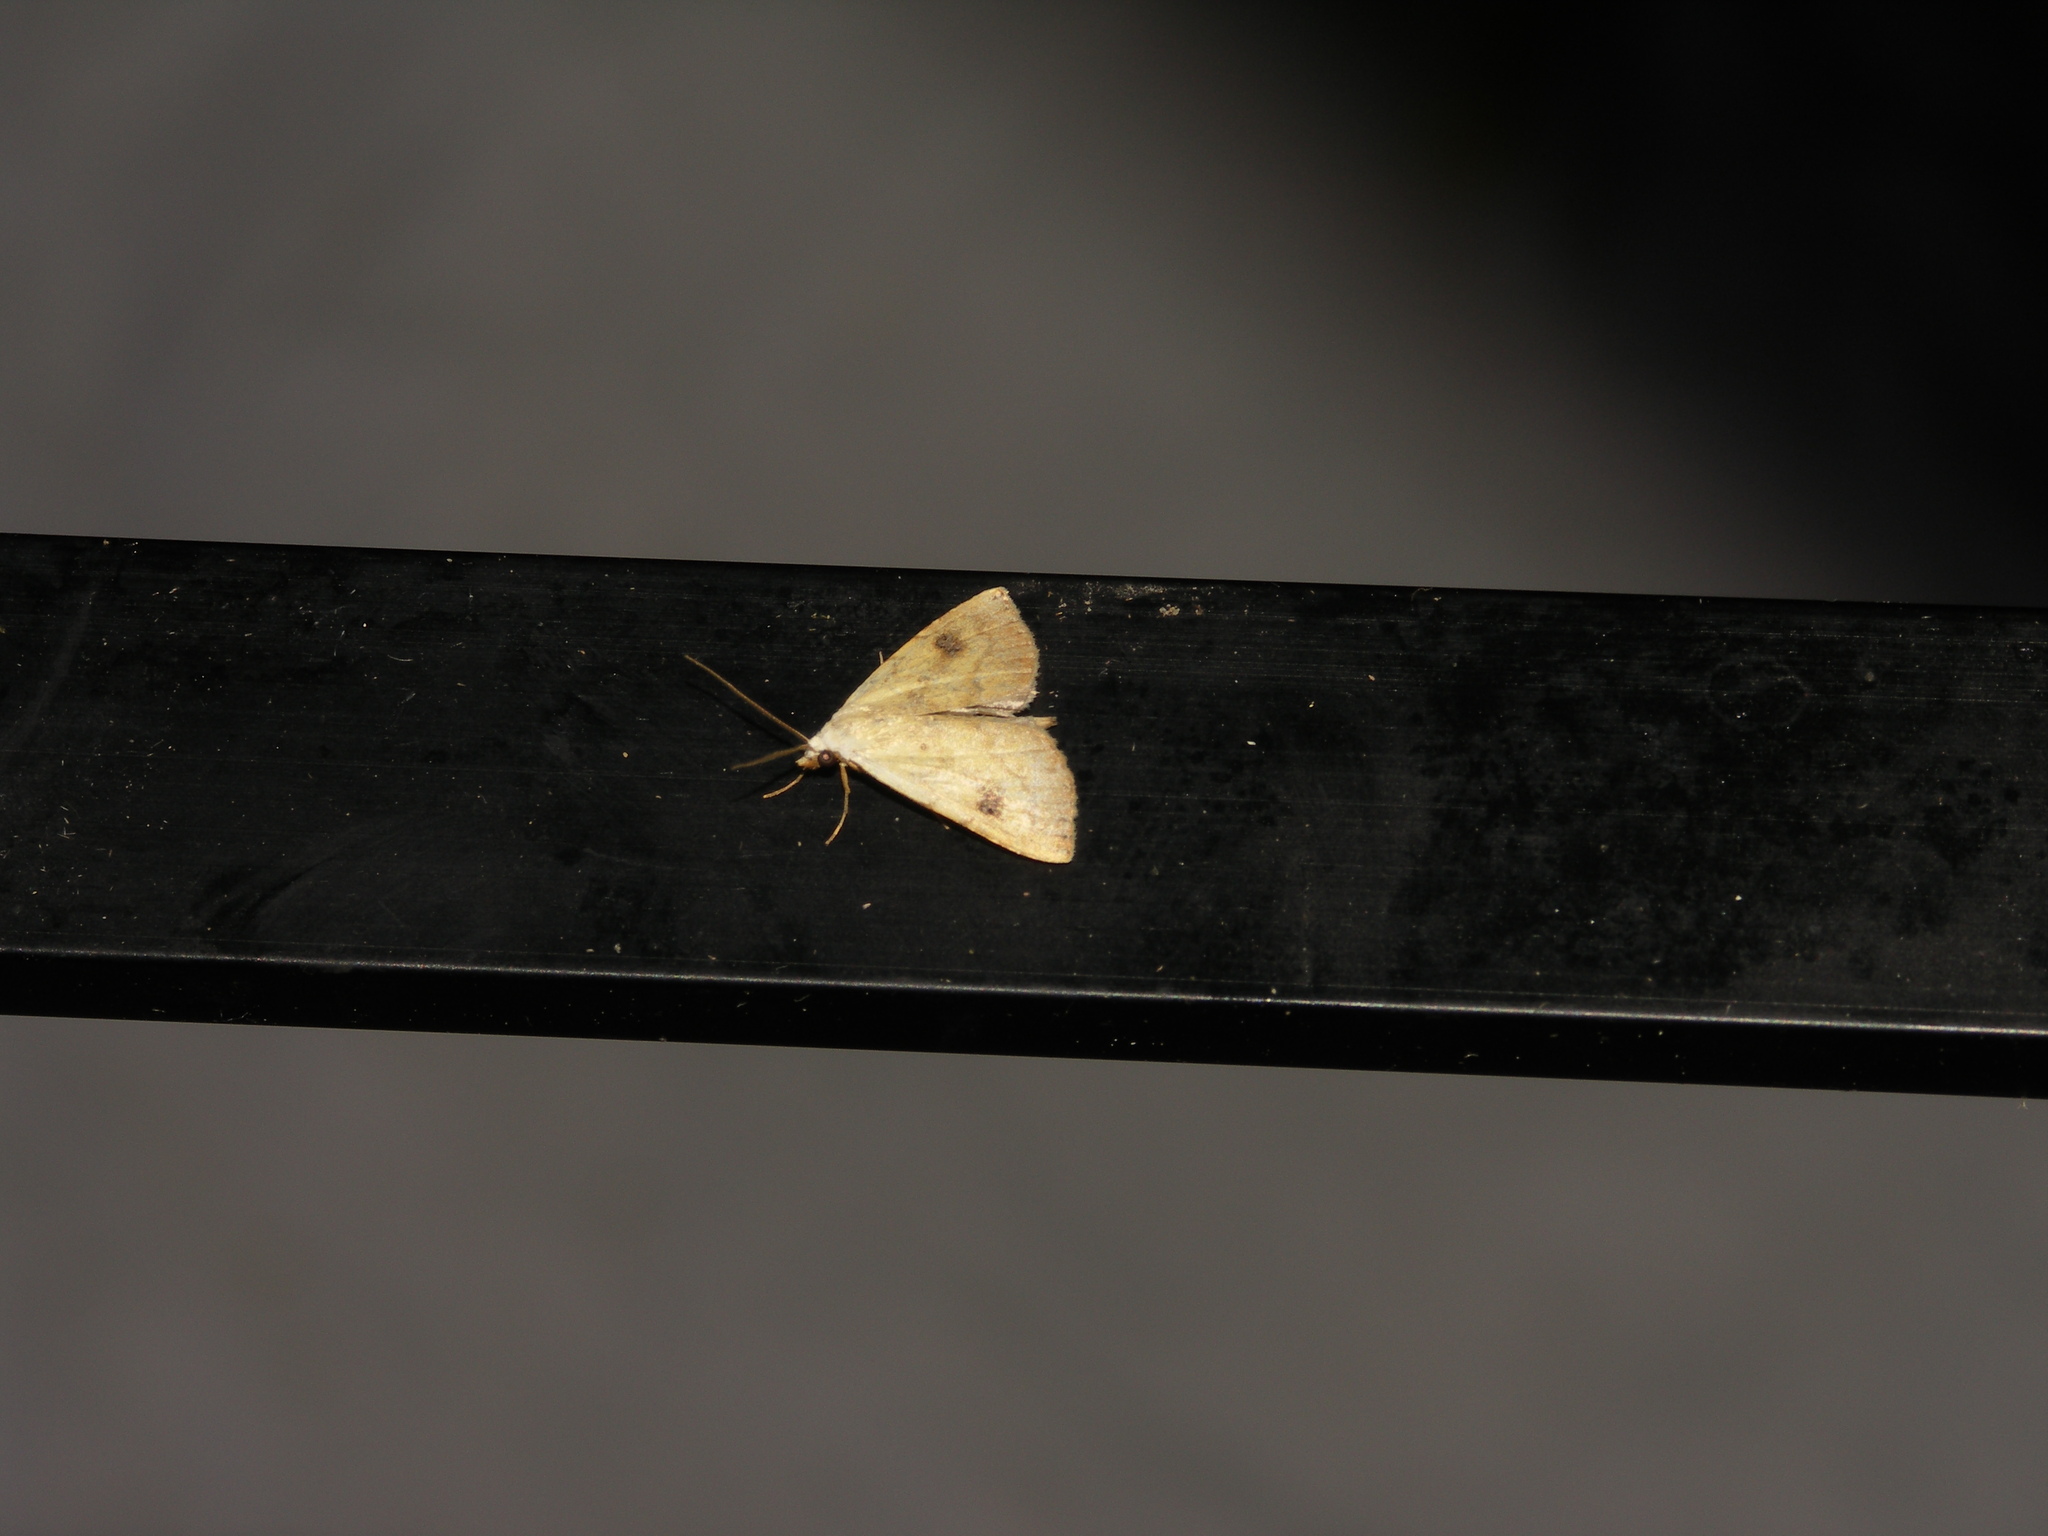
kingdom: Animalia
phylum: Arthropoda
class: Insecta
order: Lepidoptera
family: Erebidae
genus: Rivula
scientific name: Rivula sericealis
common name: Straw dot
